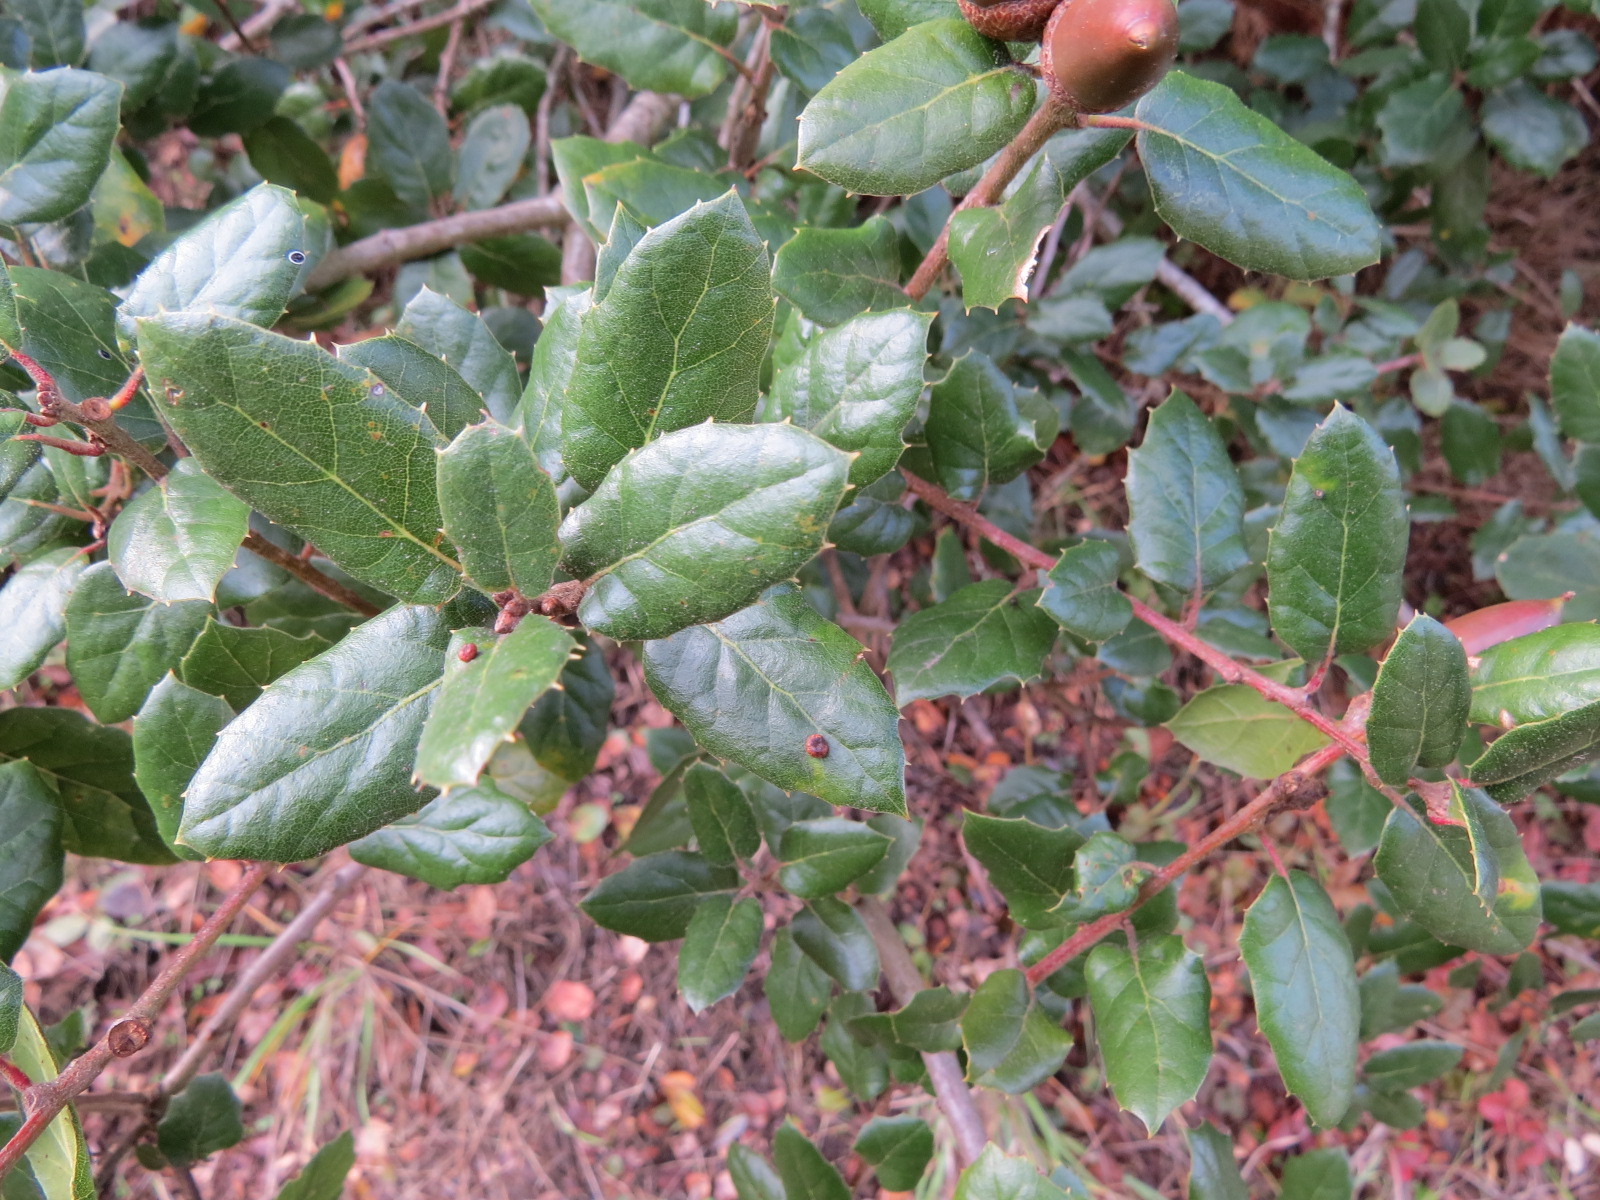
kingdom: Animalia
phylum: Arthropoda
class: Insecta
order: Hymenoptera
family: Cynipidae
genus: Dryocosmus
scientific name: Dryocosmus
